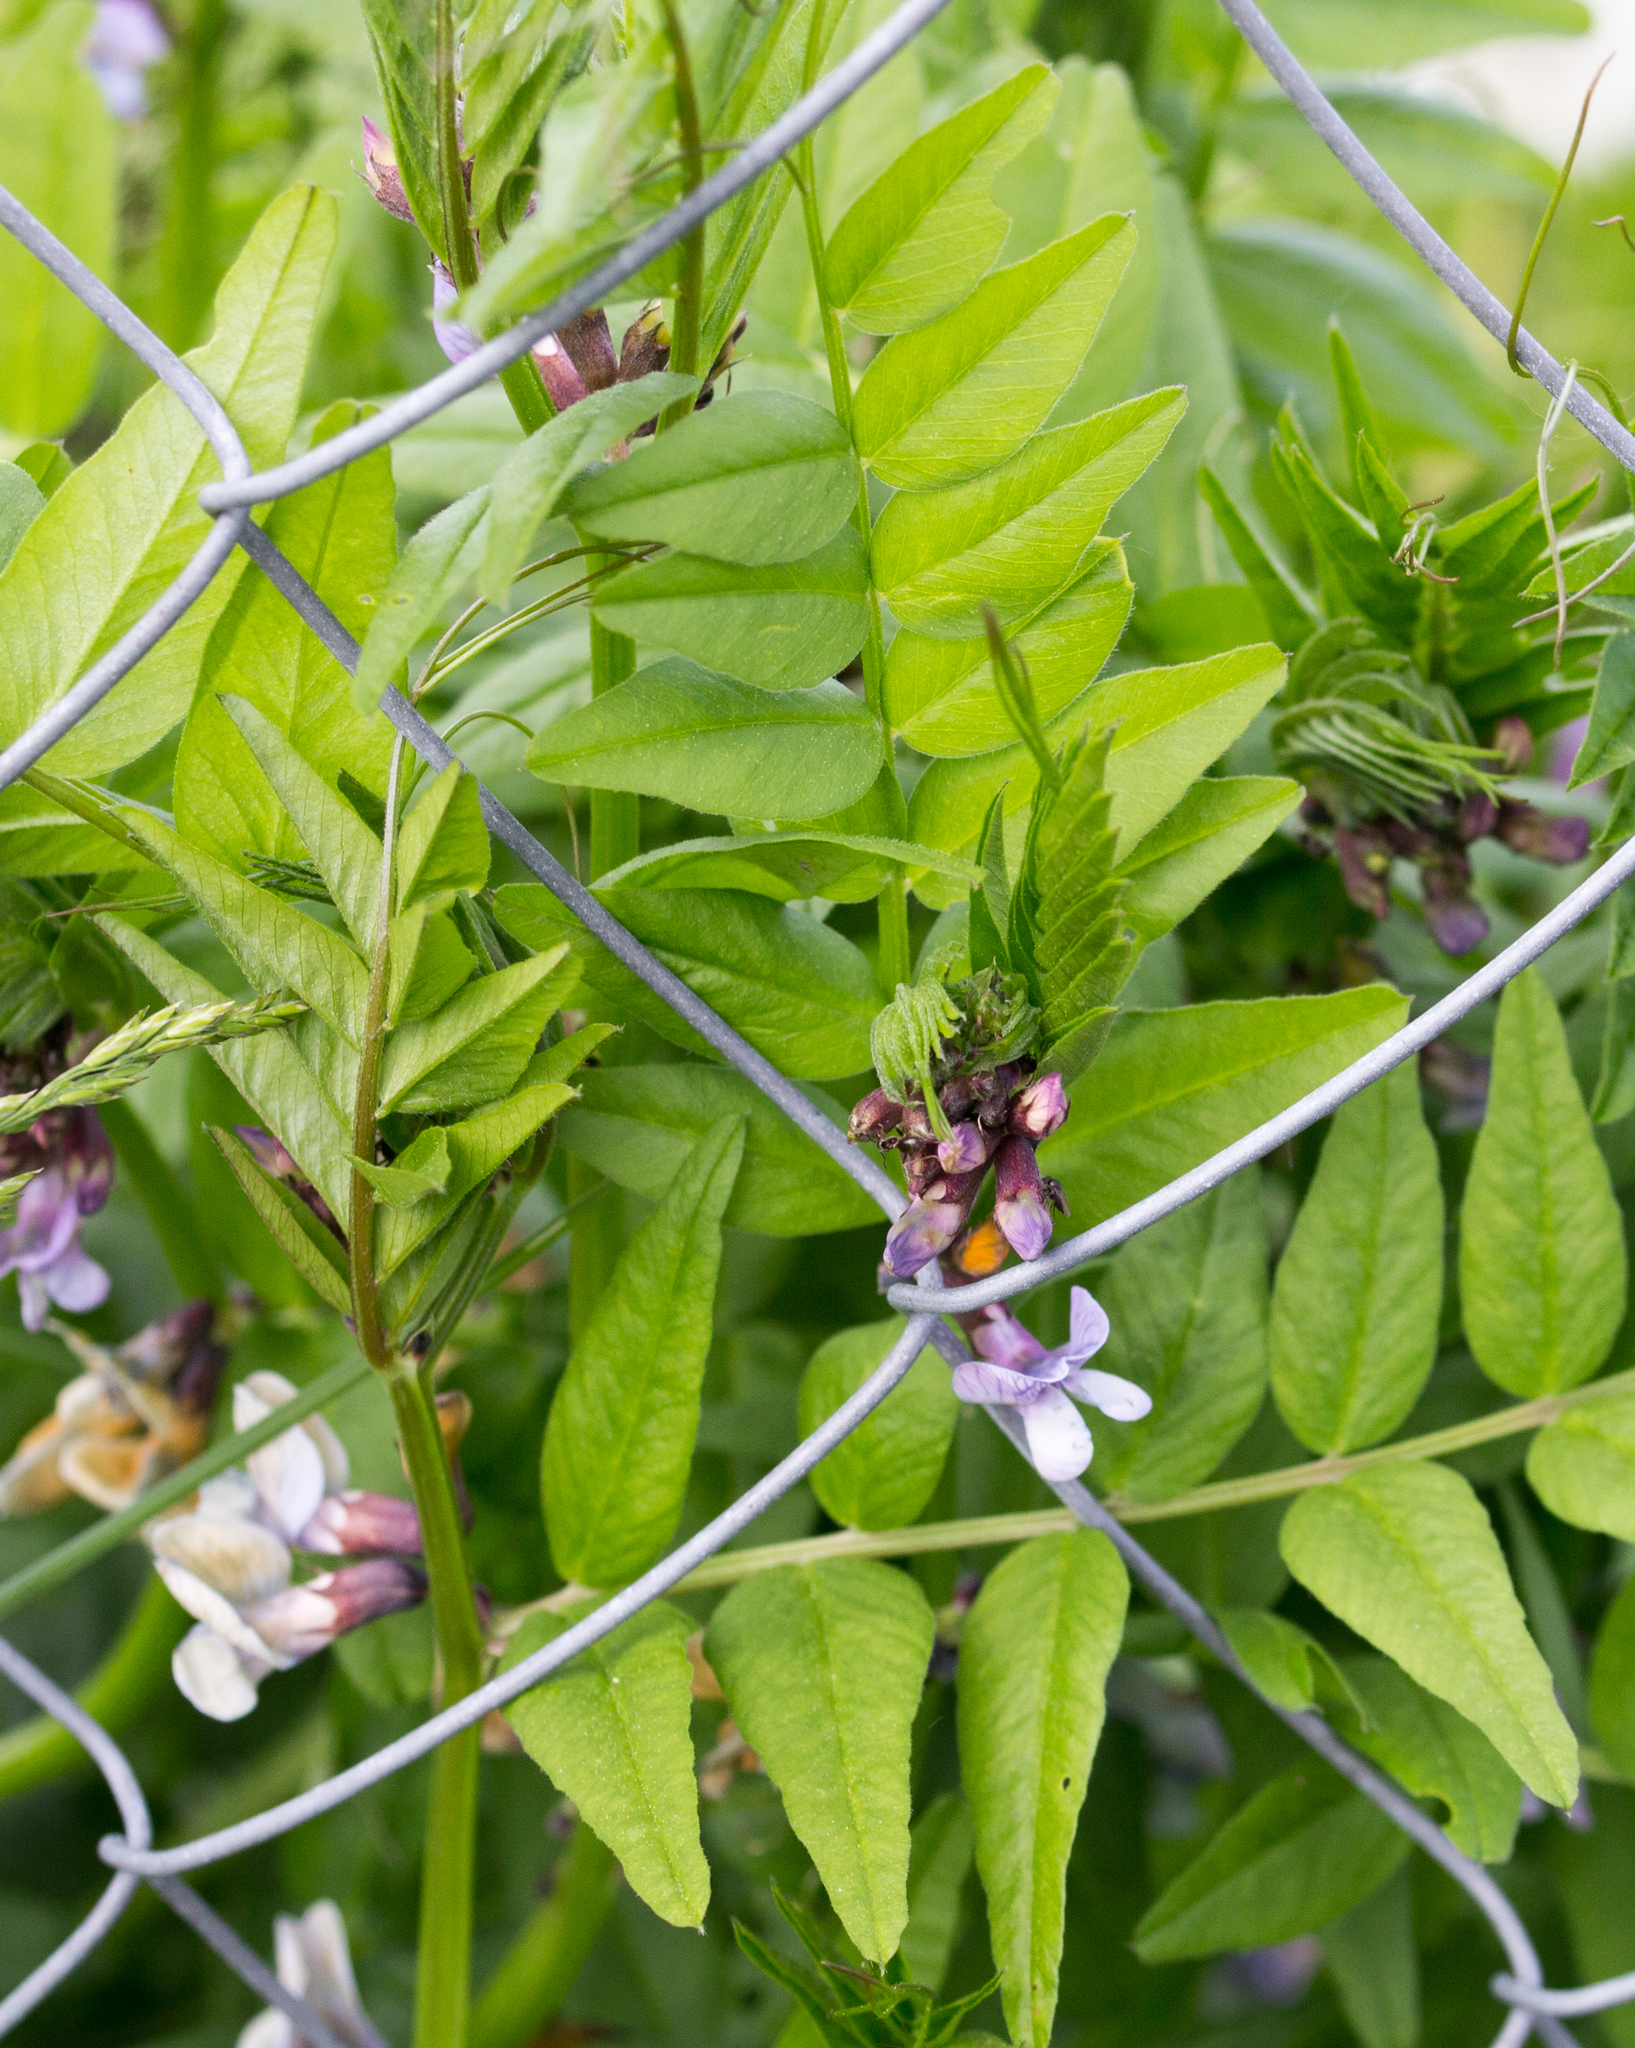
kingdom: Plantae
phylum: Tracheophyta
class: Magnoliopsida
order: Fabales
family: Fabaceae
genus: Vicia
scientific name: Vicia sepium
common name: Bush vetch
